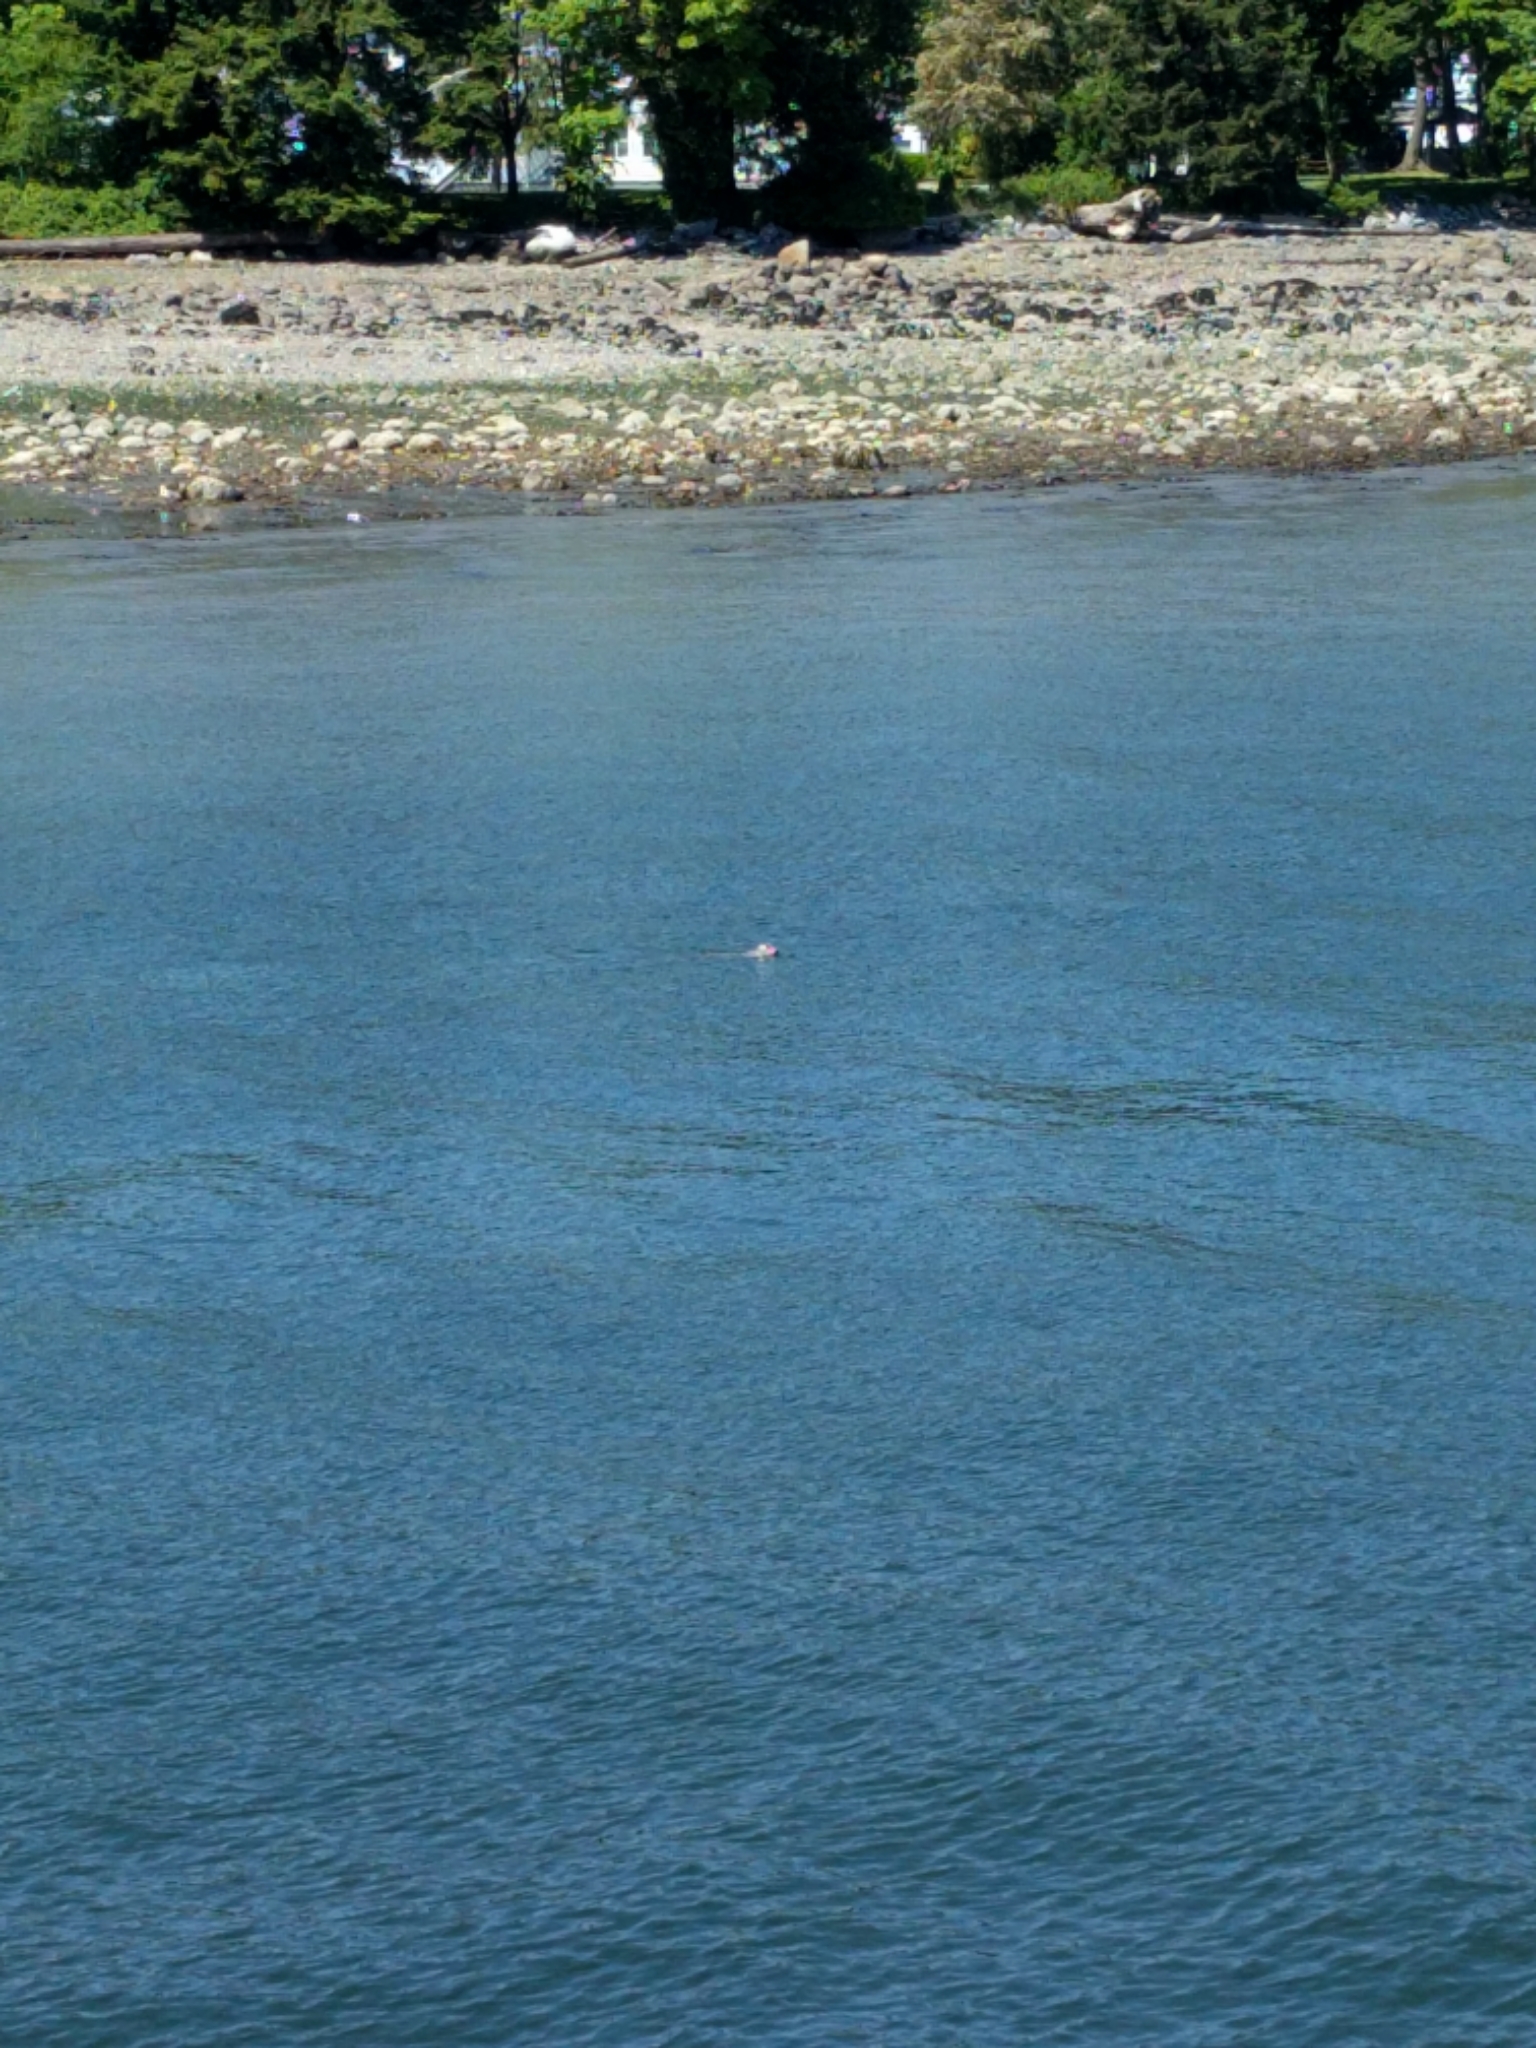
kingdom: Animalia
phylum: Chordata
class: Mammalia
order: Carnivora
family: Phocidae
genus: Phoca
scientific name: Phoca vitulina
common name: Harbor seal
